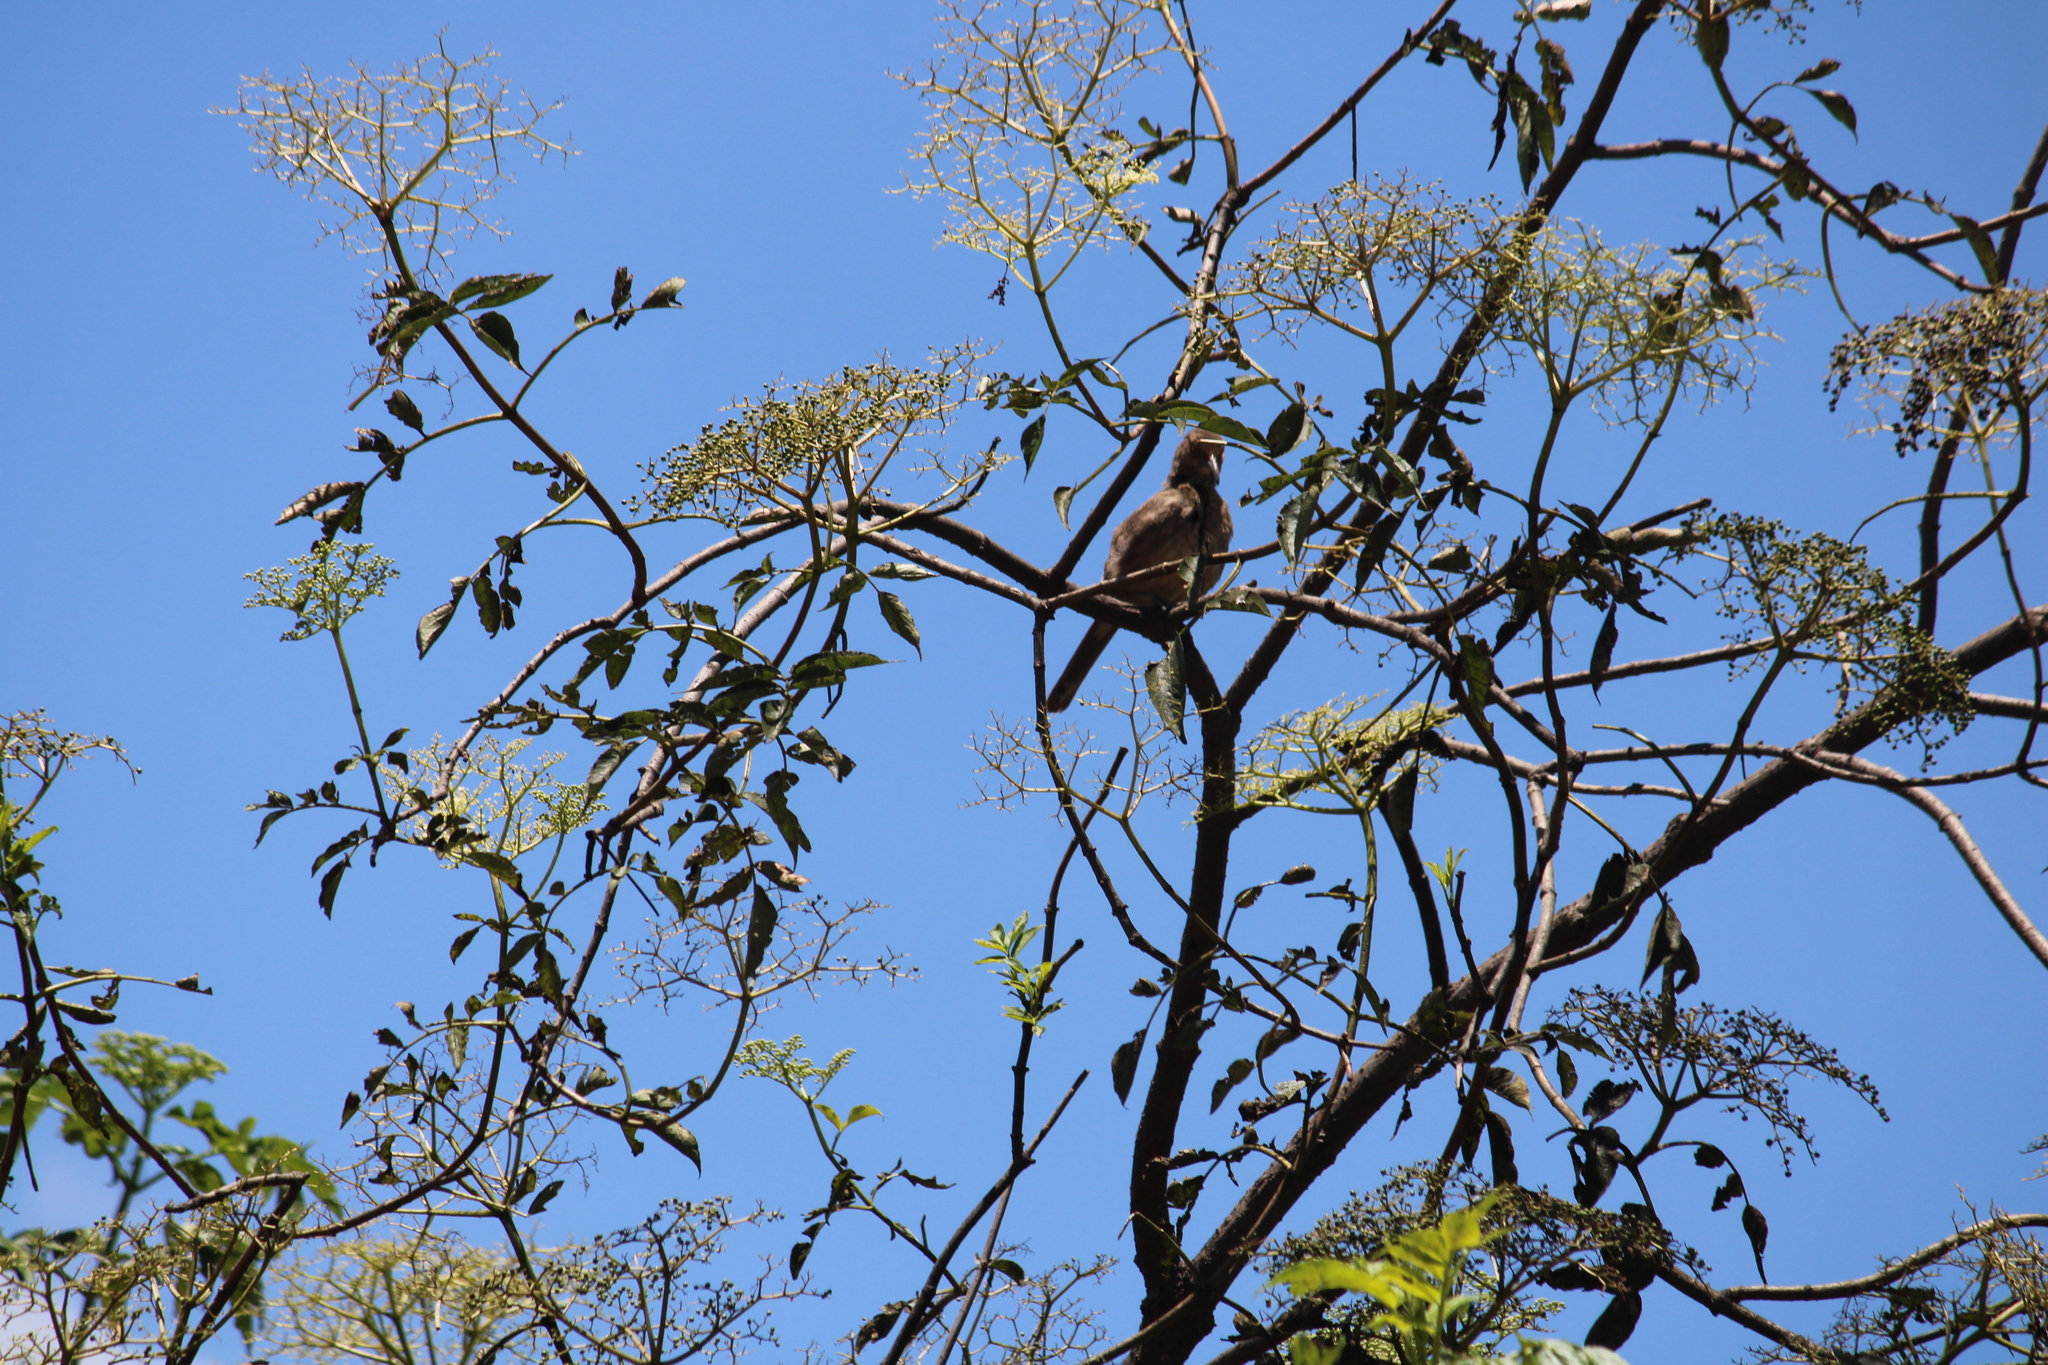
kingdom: Animalia
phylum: Chordata
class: Aves
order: Passeriformes
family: Mimidae
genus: Toxostoma
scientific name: Toxostoma curvirostre
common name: Curve-billed thrasher
